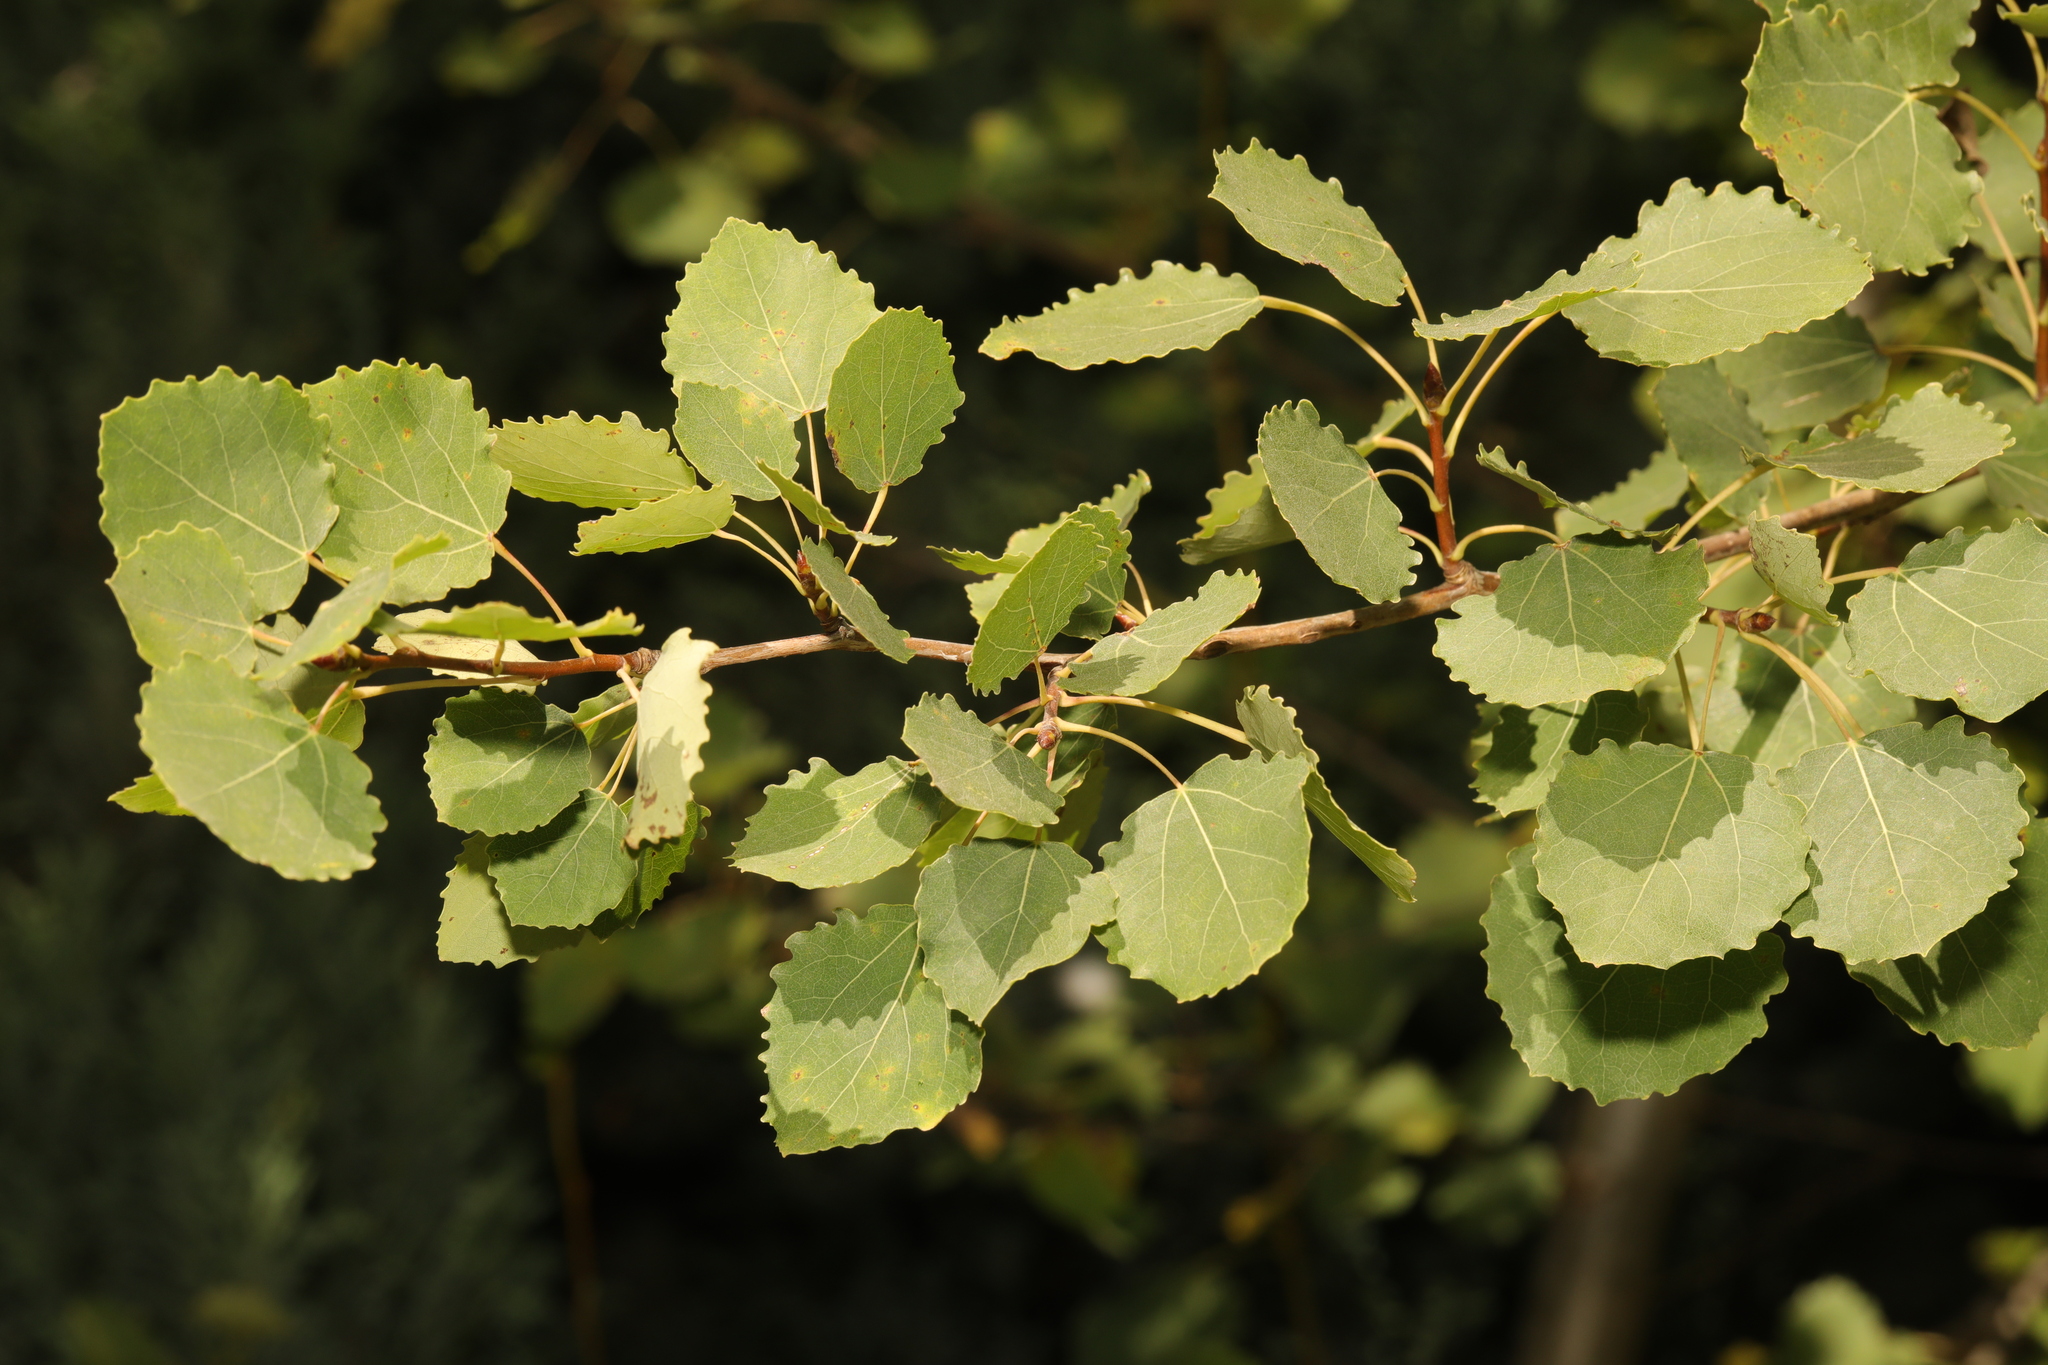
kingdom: Plantae
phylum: Tracheophyta
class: Magnoliopsida
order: Malpighiales
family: Salicaceae
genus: Populus
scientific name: Populus tremula
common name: European aspen
